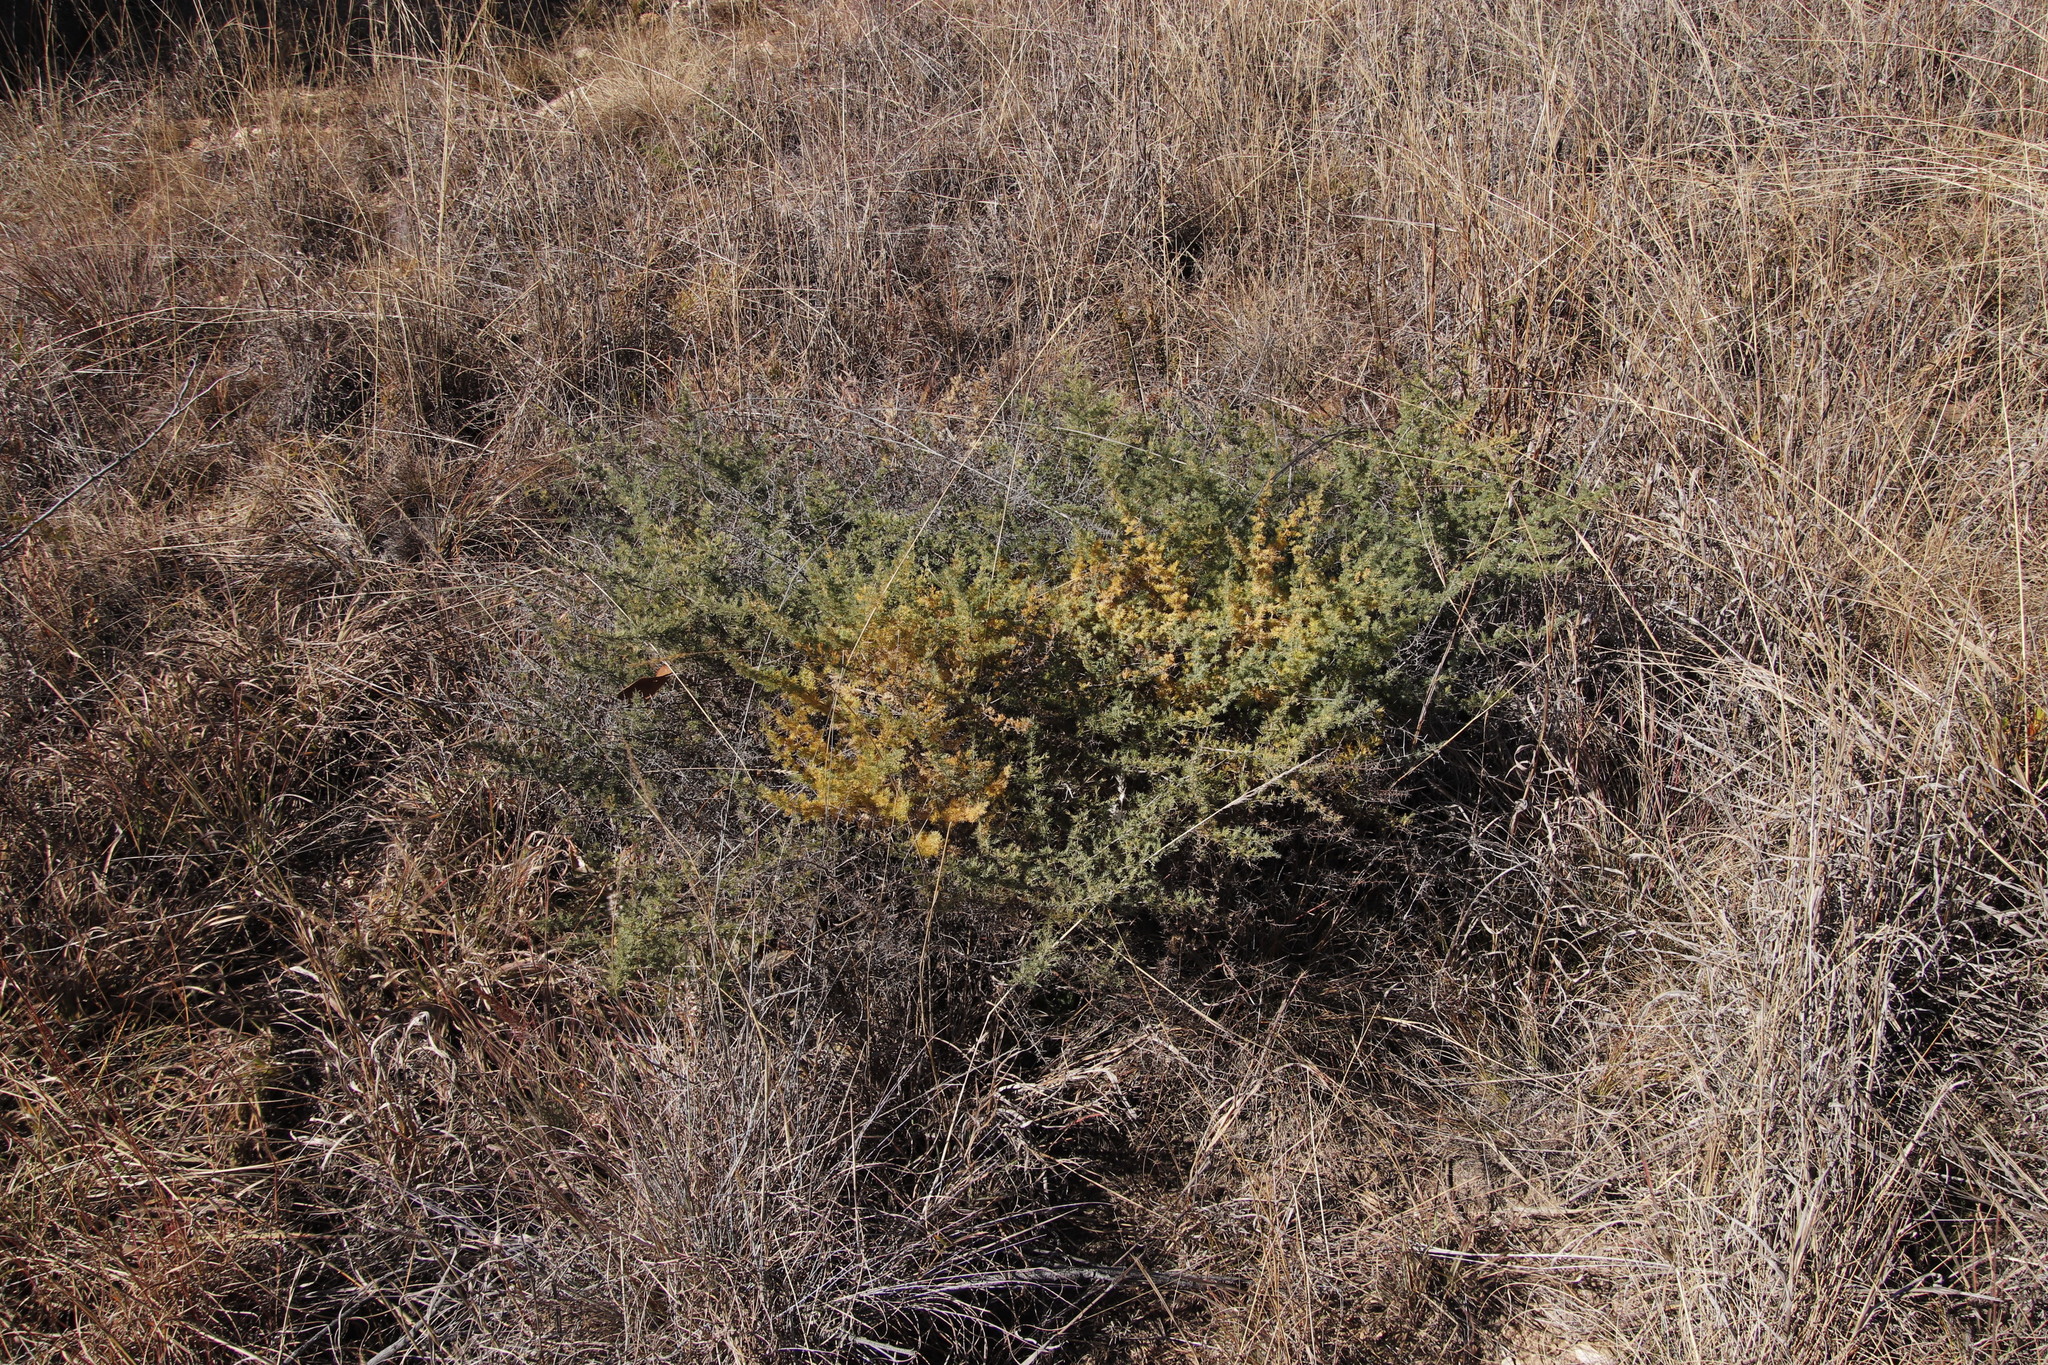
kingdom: Plantae
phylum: Tracheophyta
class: Liliopsida
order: Asparagales
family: Asparagaceae
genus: Asparagus
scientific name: Asparagus flavicaulis
